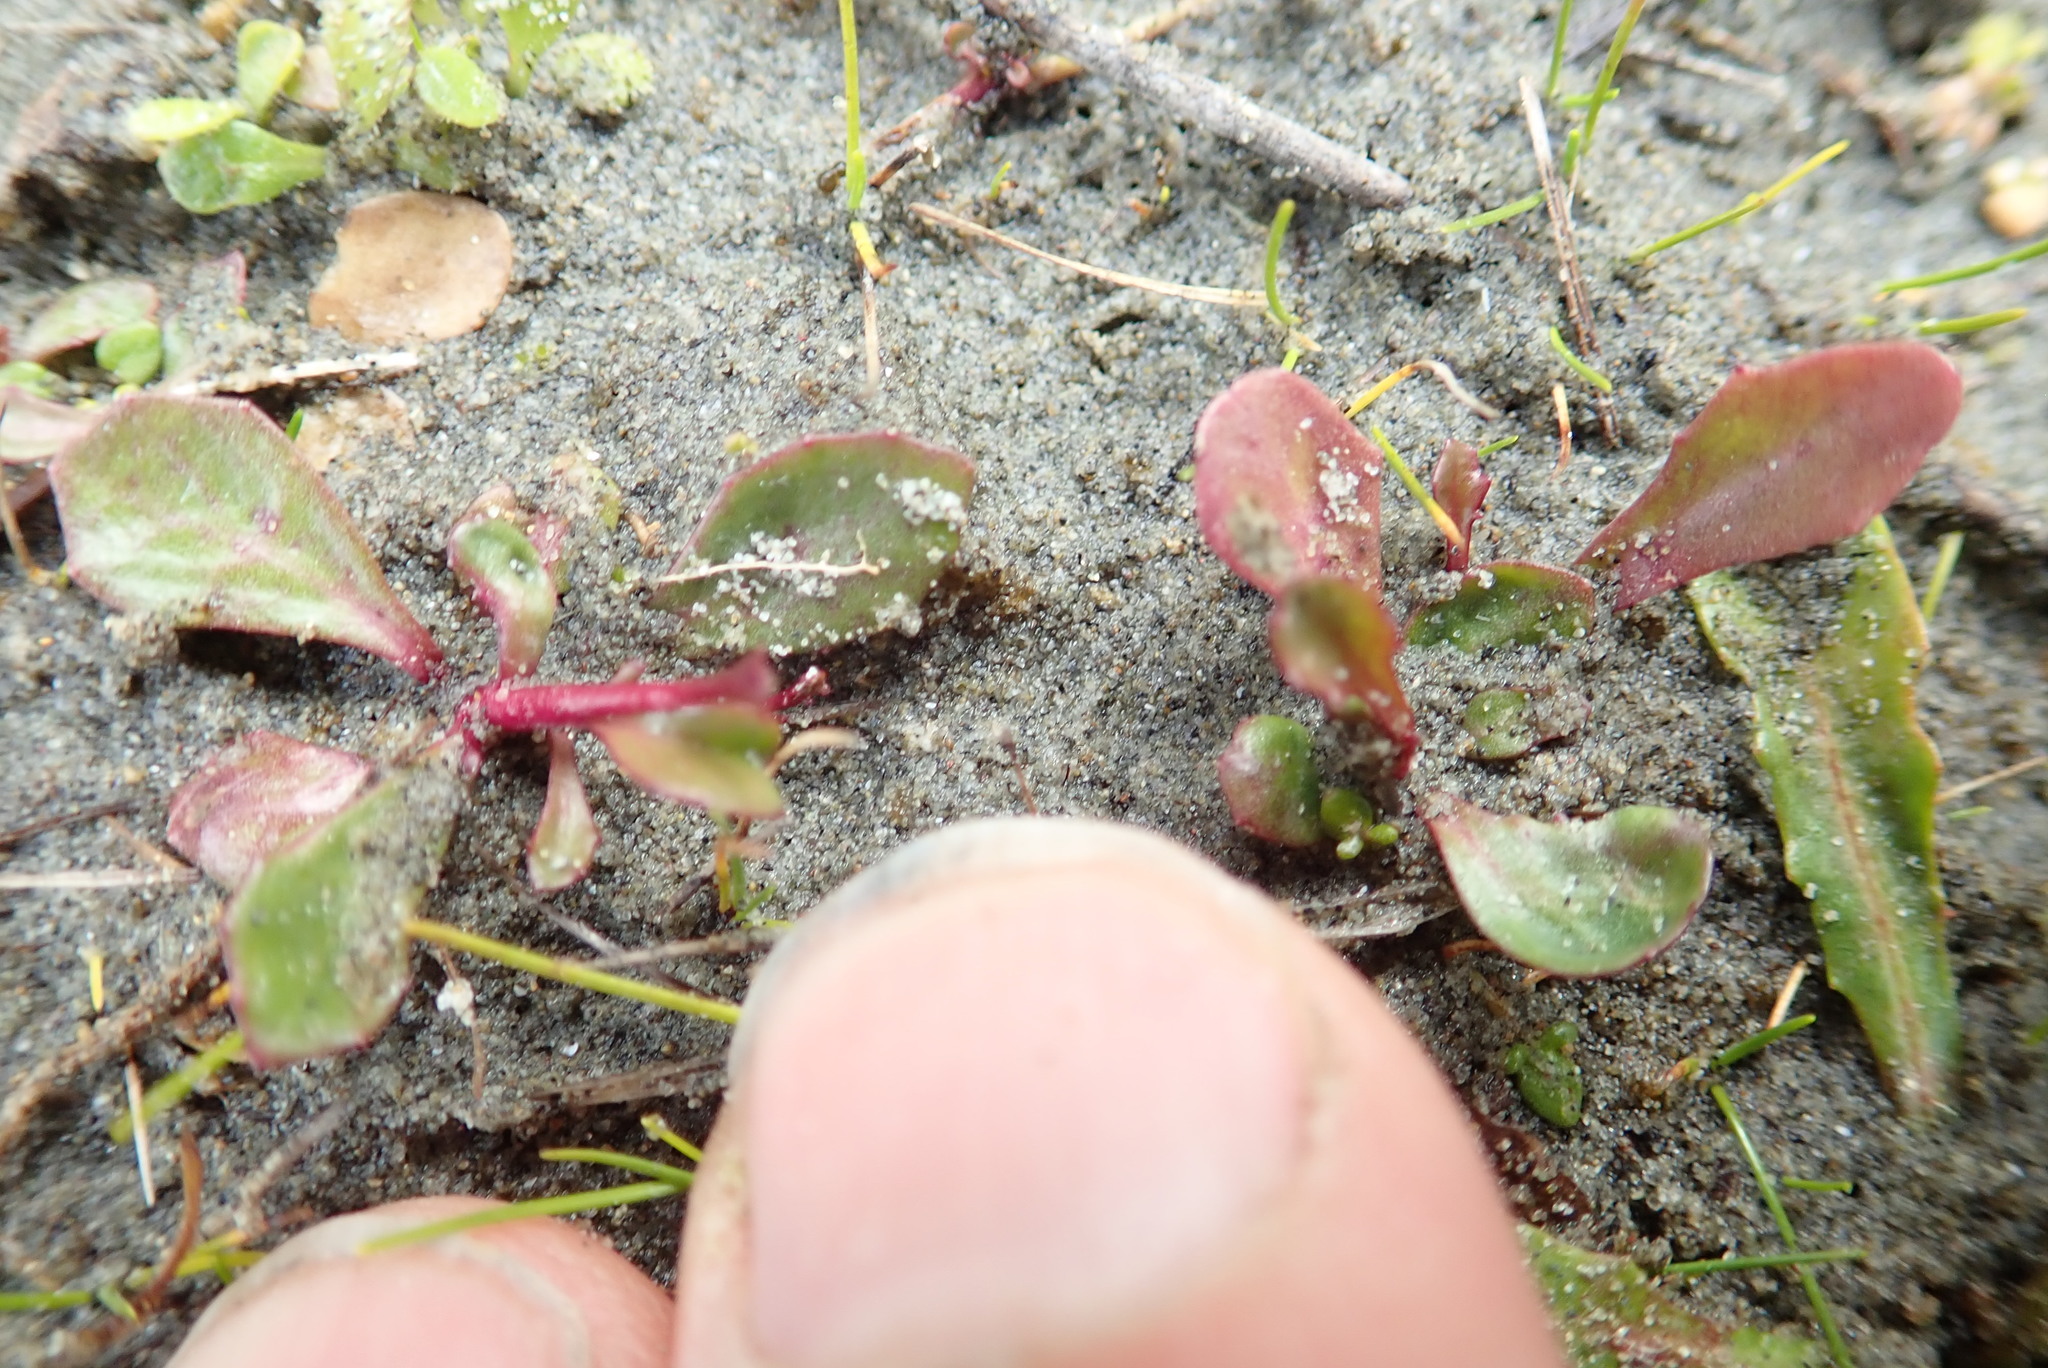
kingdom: Plantae
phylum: Tracheophyta
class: Magnoliopsida
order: Asterales
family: Campanulaceae
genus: Lobelia
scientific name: Lobelia anceps
